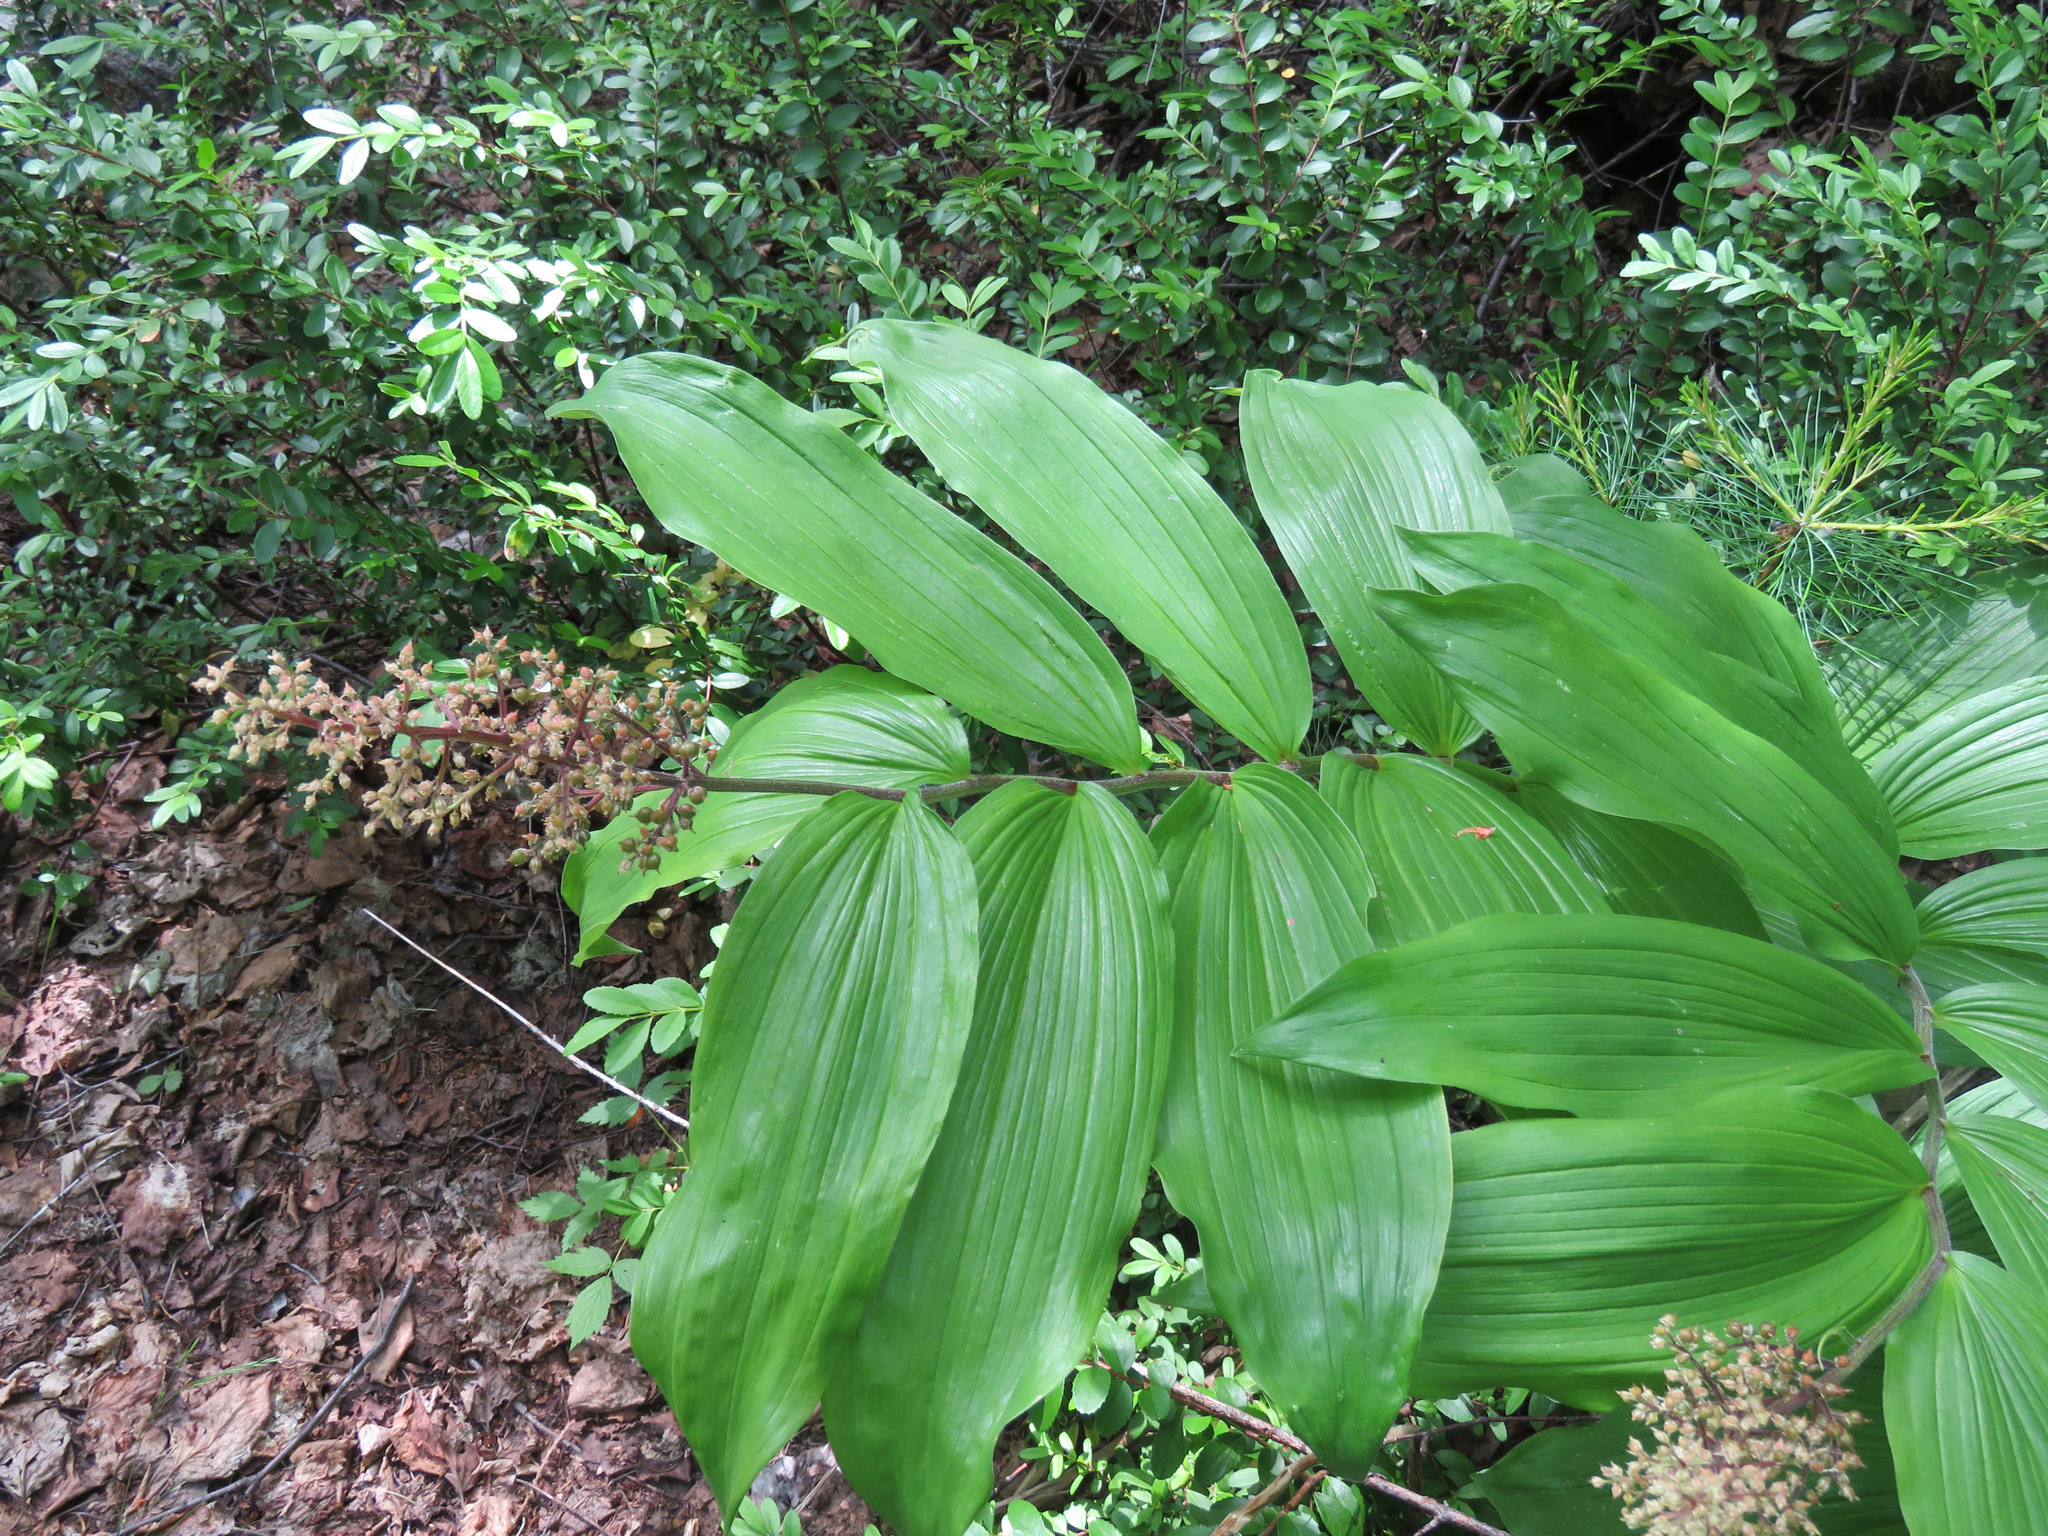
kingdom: Plantae
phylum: Tracheophyta
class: Liliopsida
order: Asparagales
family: Asparagaceae
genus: Maianthemum
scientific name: Maianthemum racemosum
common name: False spikenard
